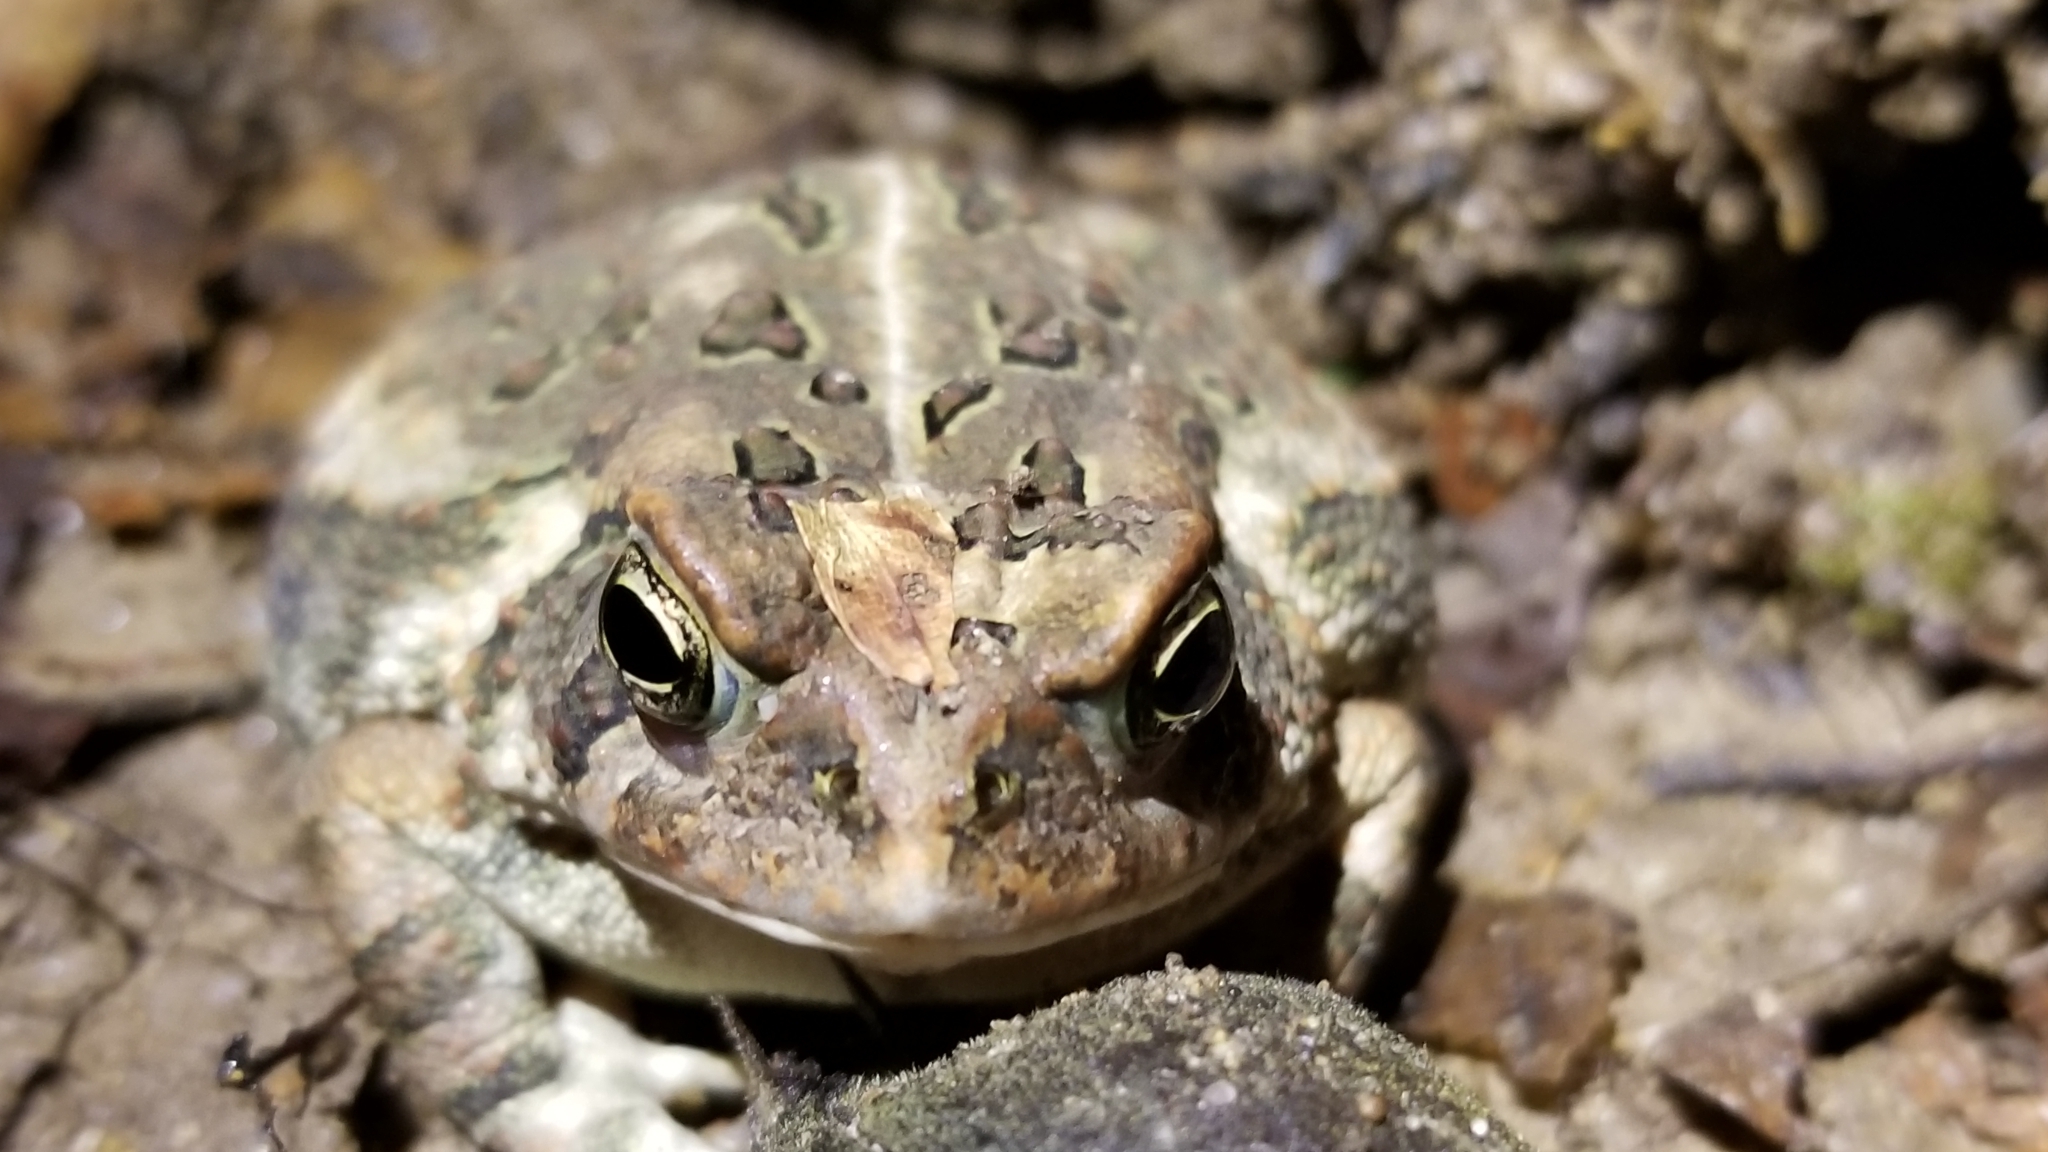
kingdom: Animalia
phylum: Chordata
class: Amphibia
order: Anura
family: Bufonidae
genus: Anaxyrus
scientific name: Anaxyrus fowleri
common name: Fowler's toad
